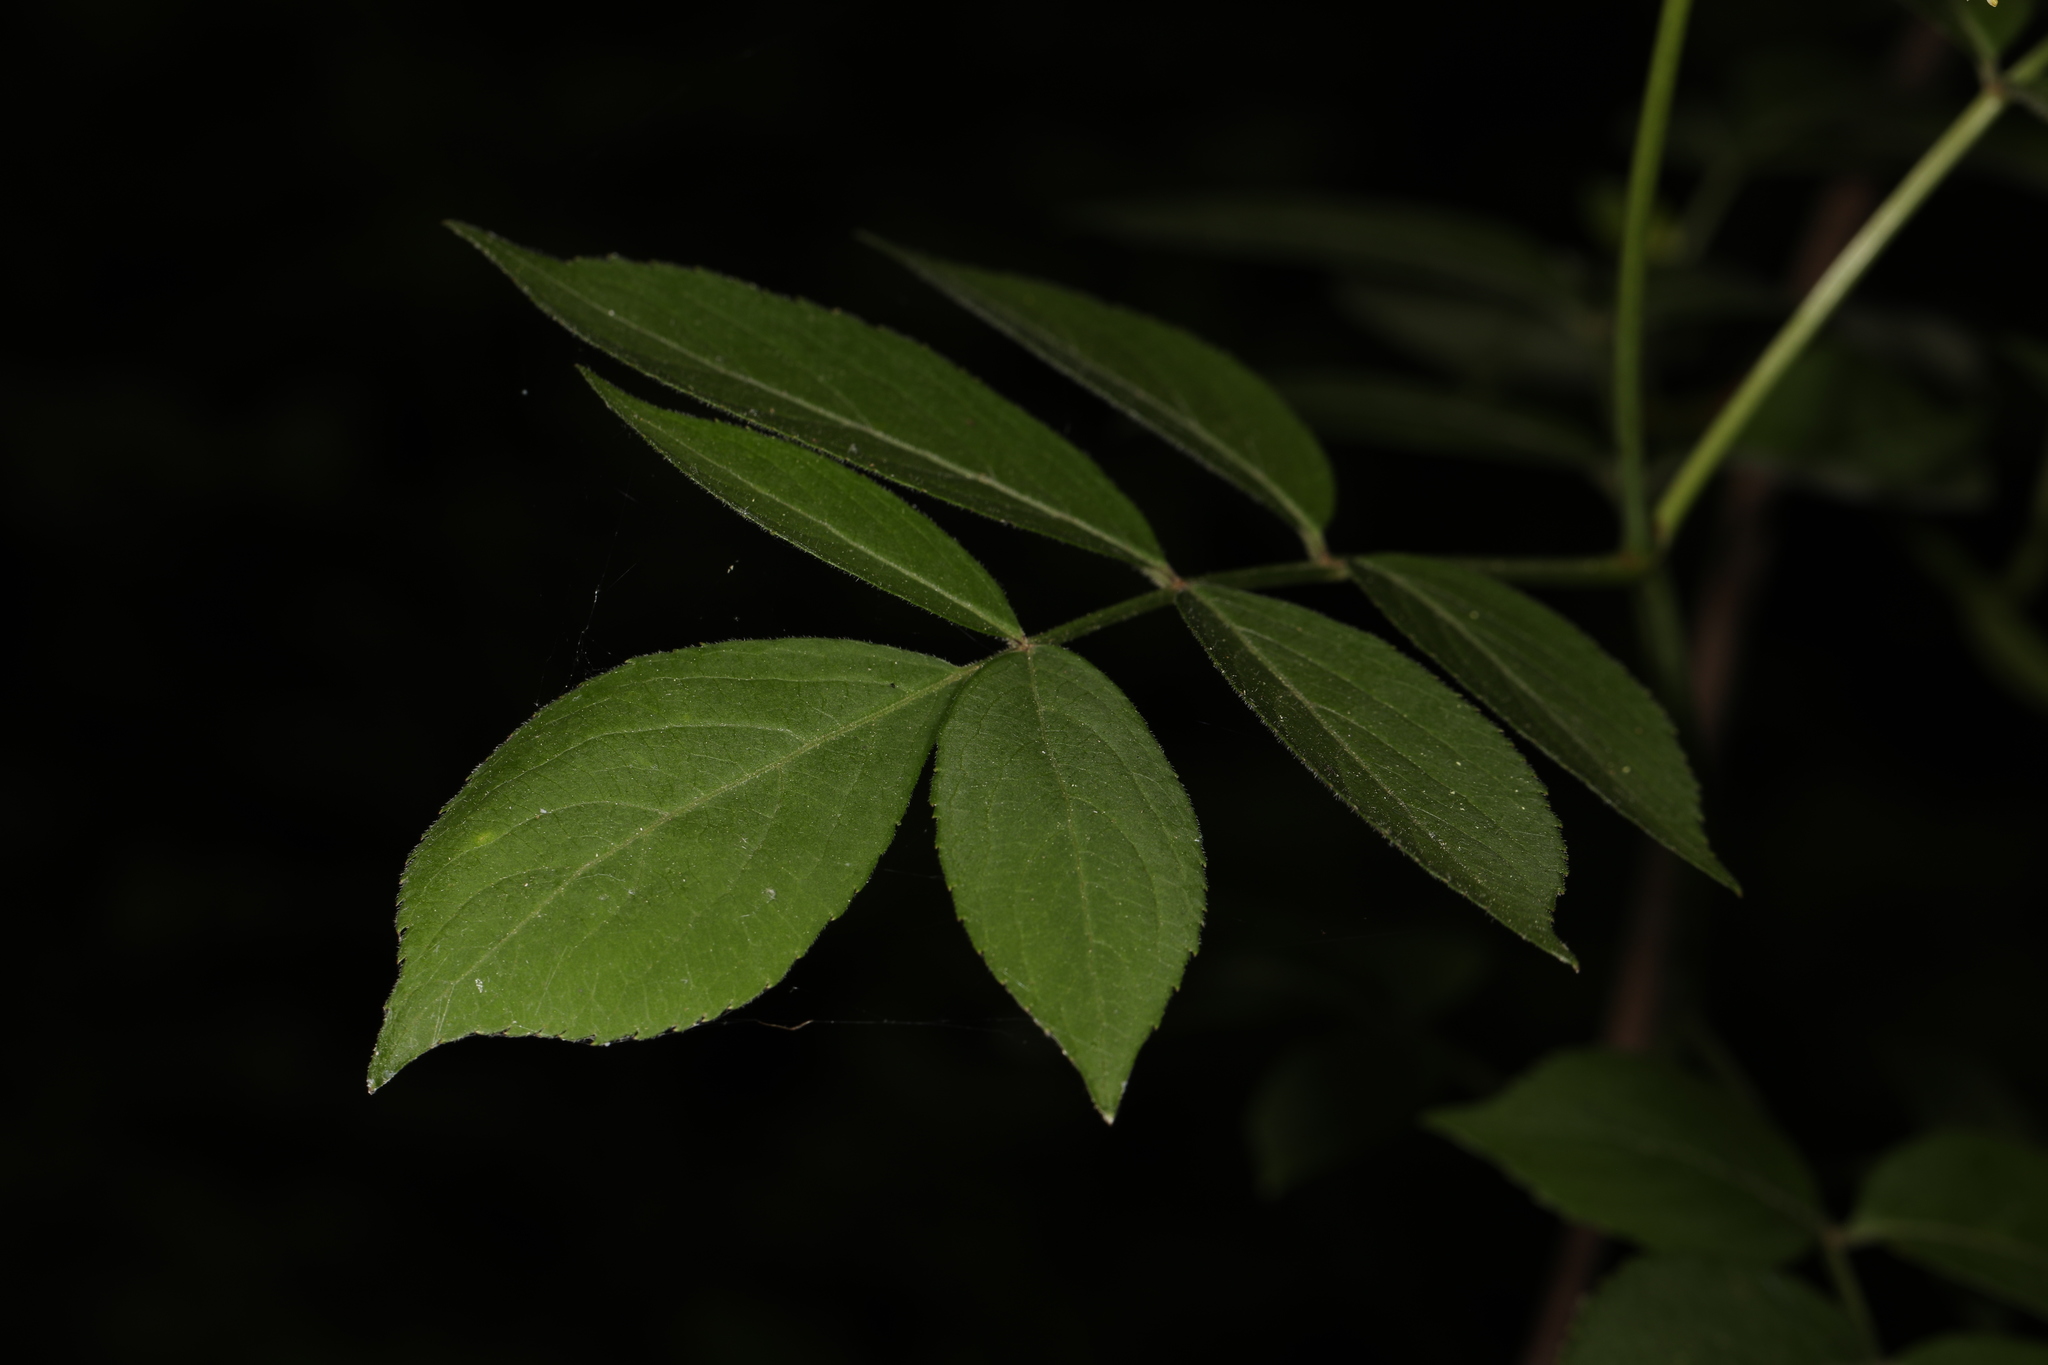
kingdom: Plantae
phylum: Tracheophyta
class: Magnoliopsida
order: Dipsacales
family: Viburnaceae
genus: Sambucus
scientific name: Sambucus canadensis
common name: American elder
